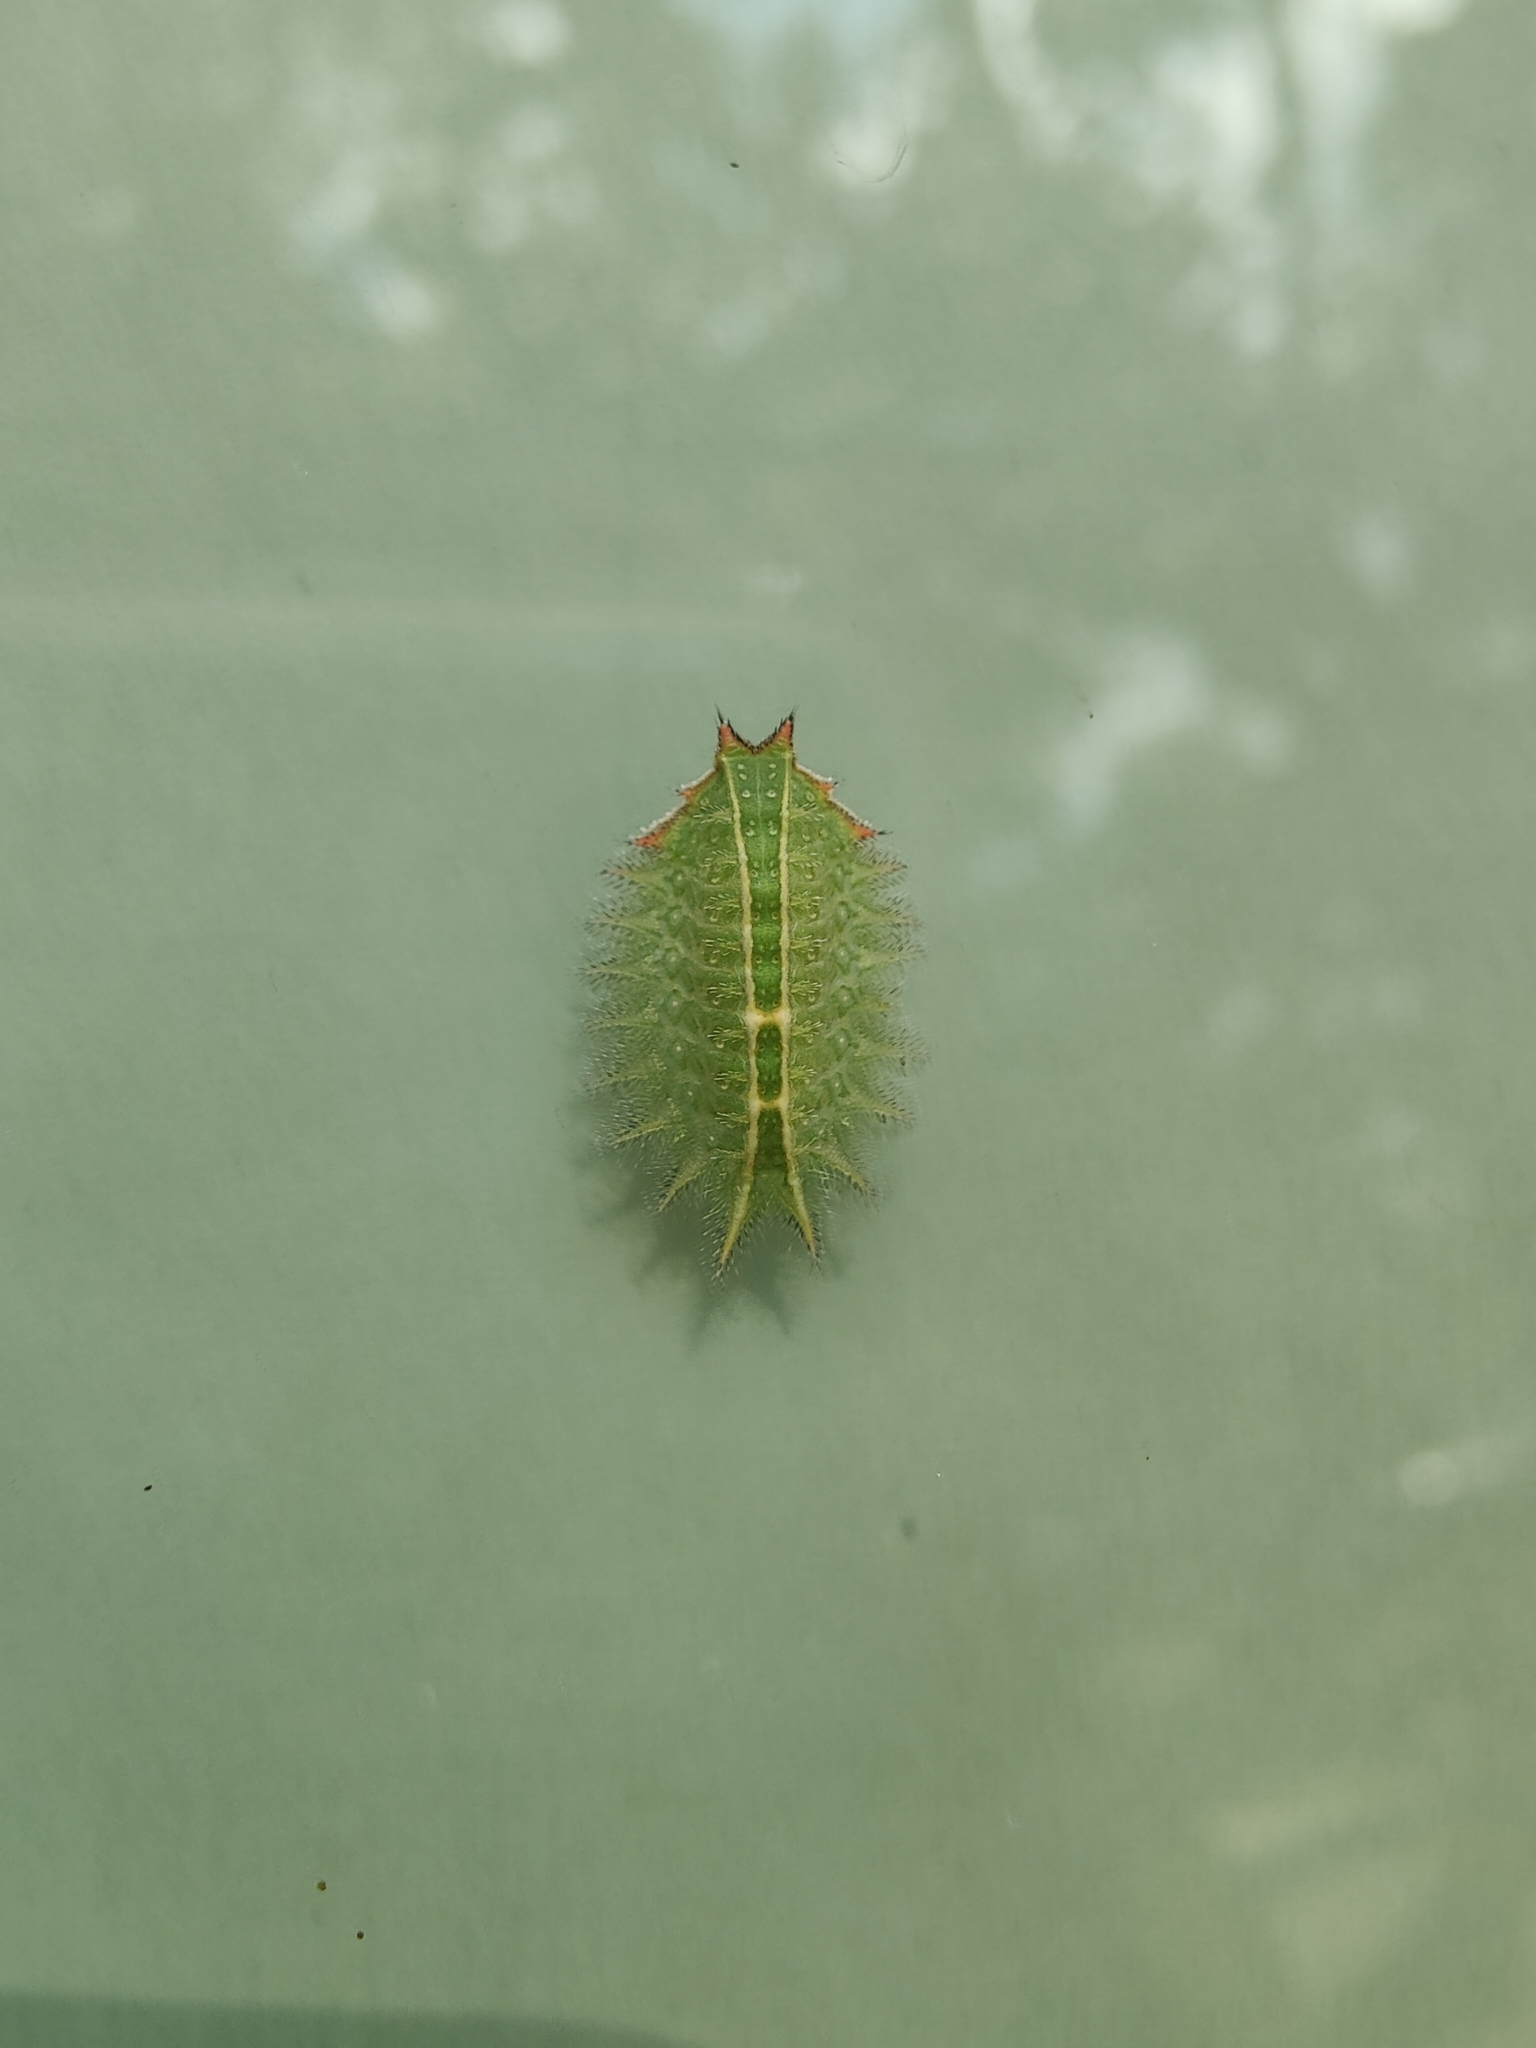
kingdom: Animalia
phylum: Arthropoda
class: Insecta
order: Lepidoptera
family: Limacodidae
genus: Isa
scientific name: Isa textula
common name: Crowned slug moth
